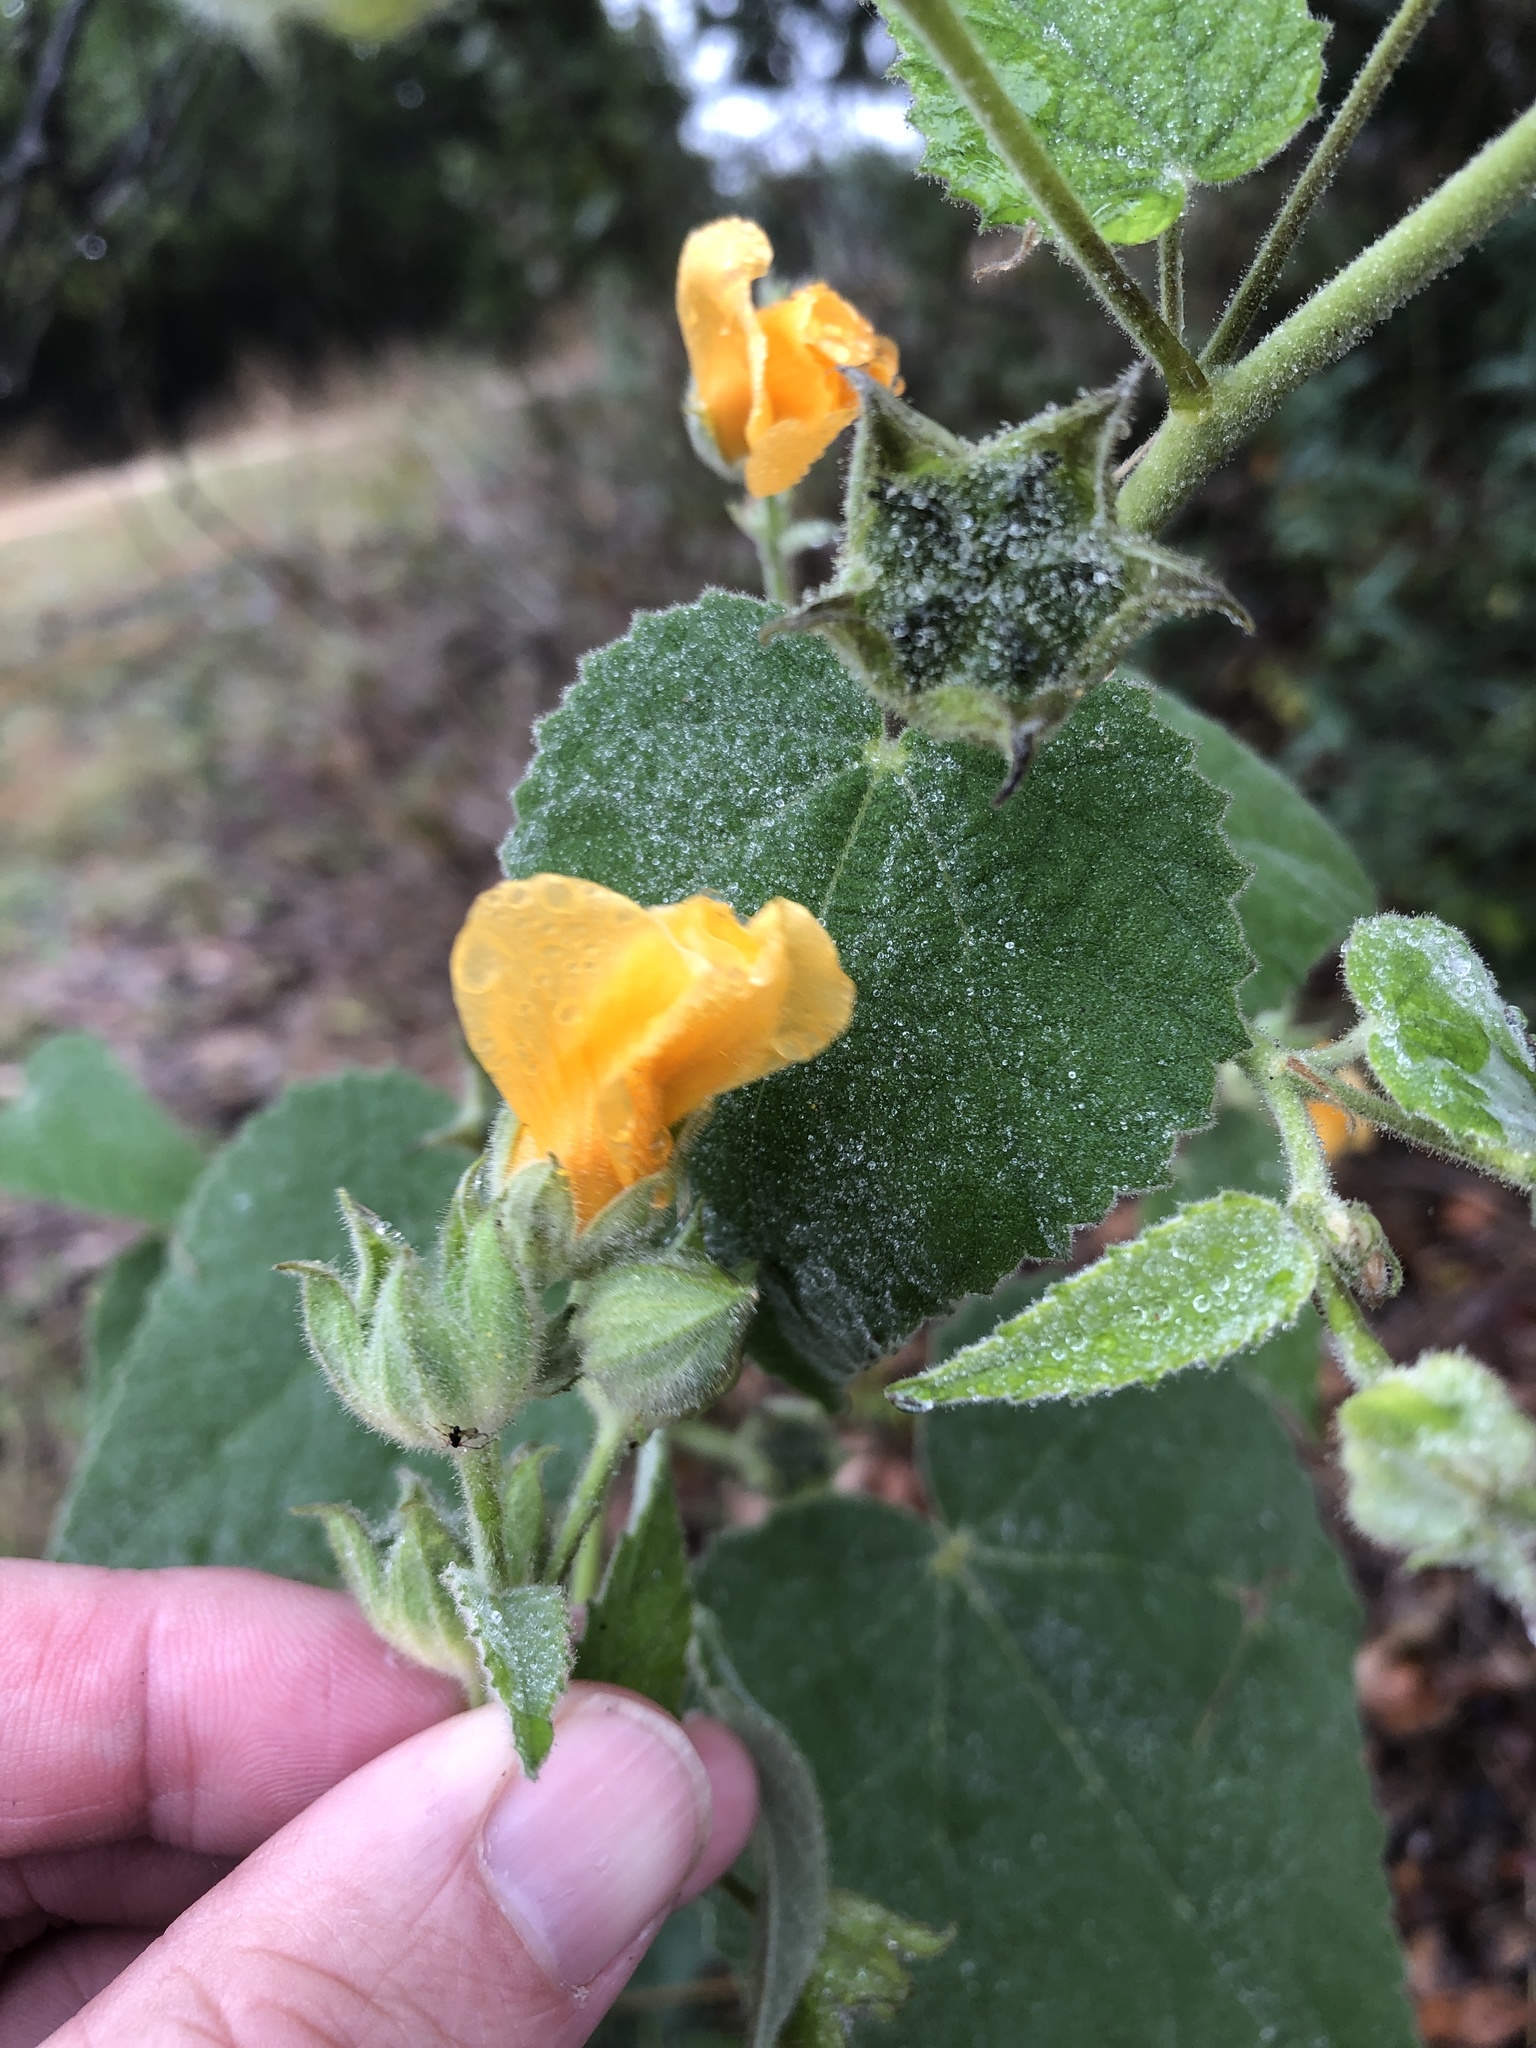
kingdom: Plantae
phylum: Tracheophyta
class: Magnoliopsida
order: Malvales
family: Malvaceae
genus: Allowissadula
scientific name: Allowissadula holosericea
